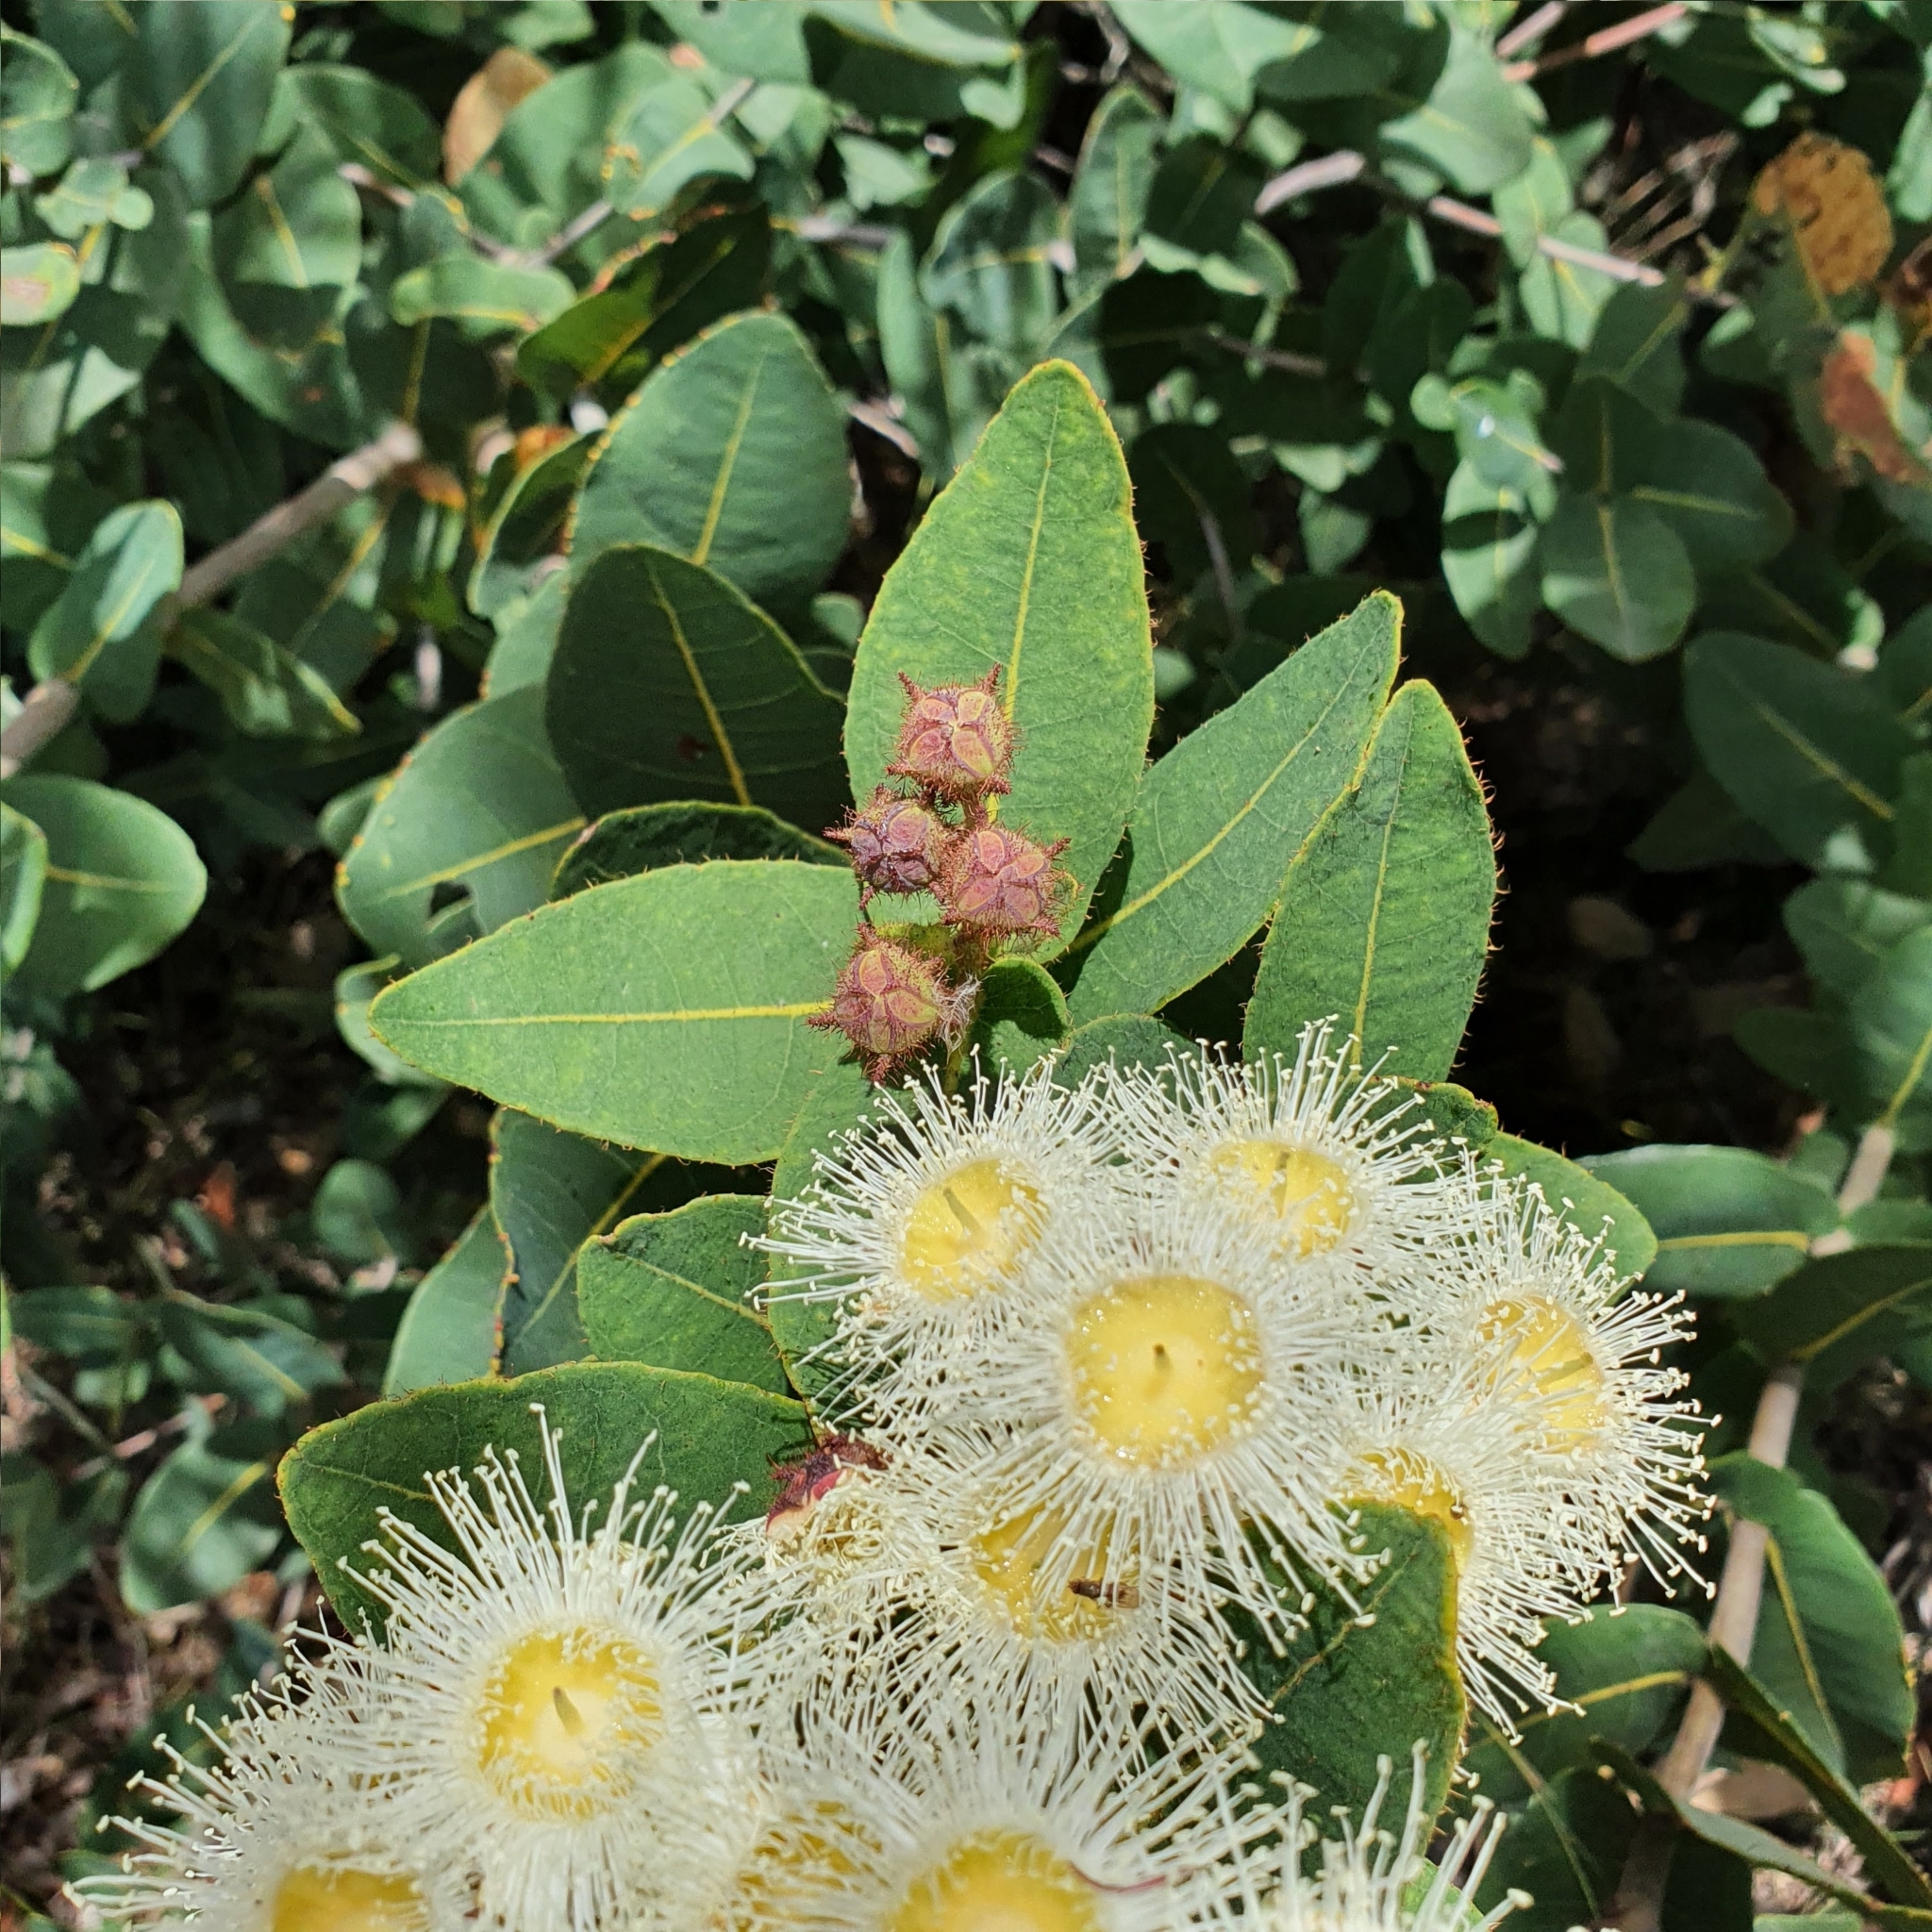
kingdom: Plantae
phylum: Tracheophyta
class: Magnoliopsida
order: Myrtales
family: Myrtaceae
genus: Angophora
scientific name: Angophora hispida
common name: Dwarf-apple
